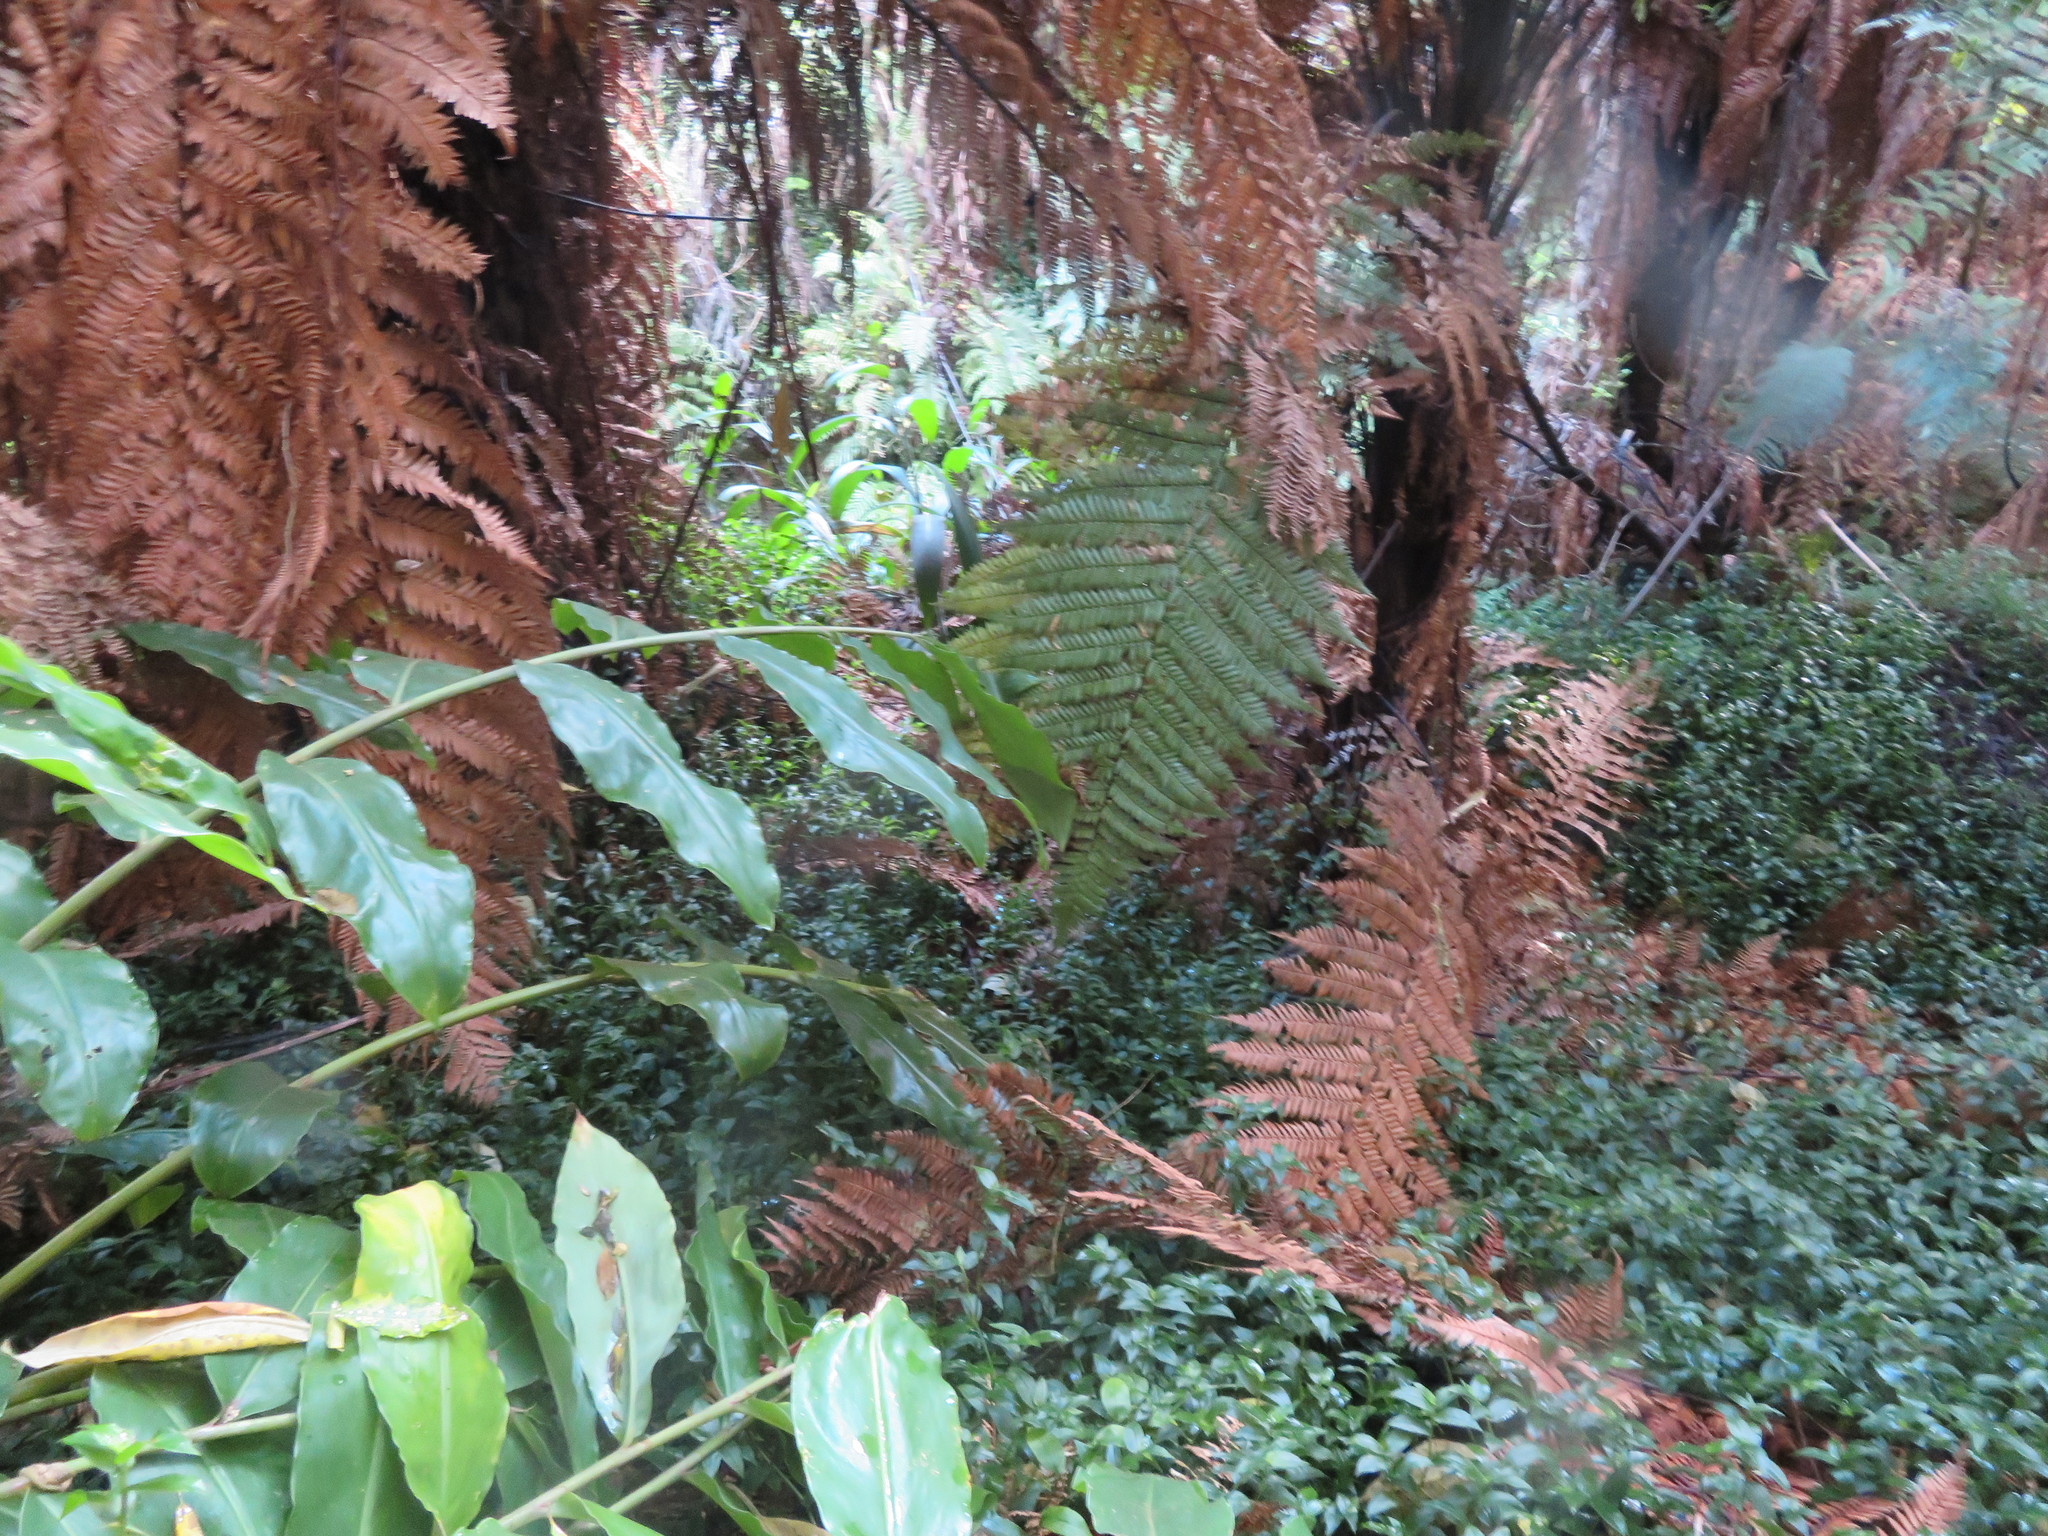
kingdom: Plantae
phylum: Tracheophyta
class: Liliopsida
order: Zingiberales
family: Zingiberaceae
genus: Hedychium
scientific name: Hedychium gardnerianum
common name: Himalayan ginger
